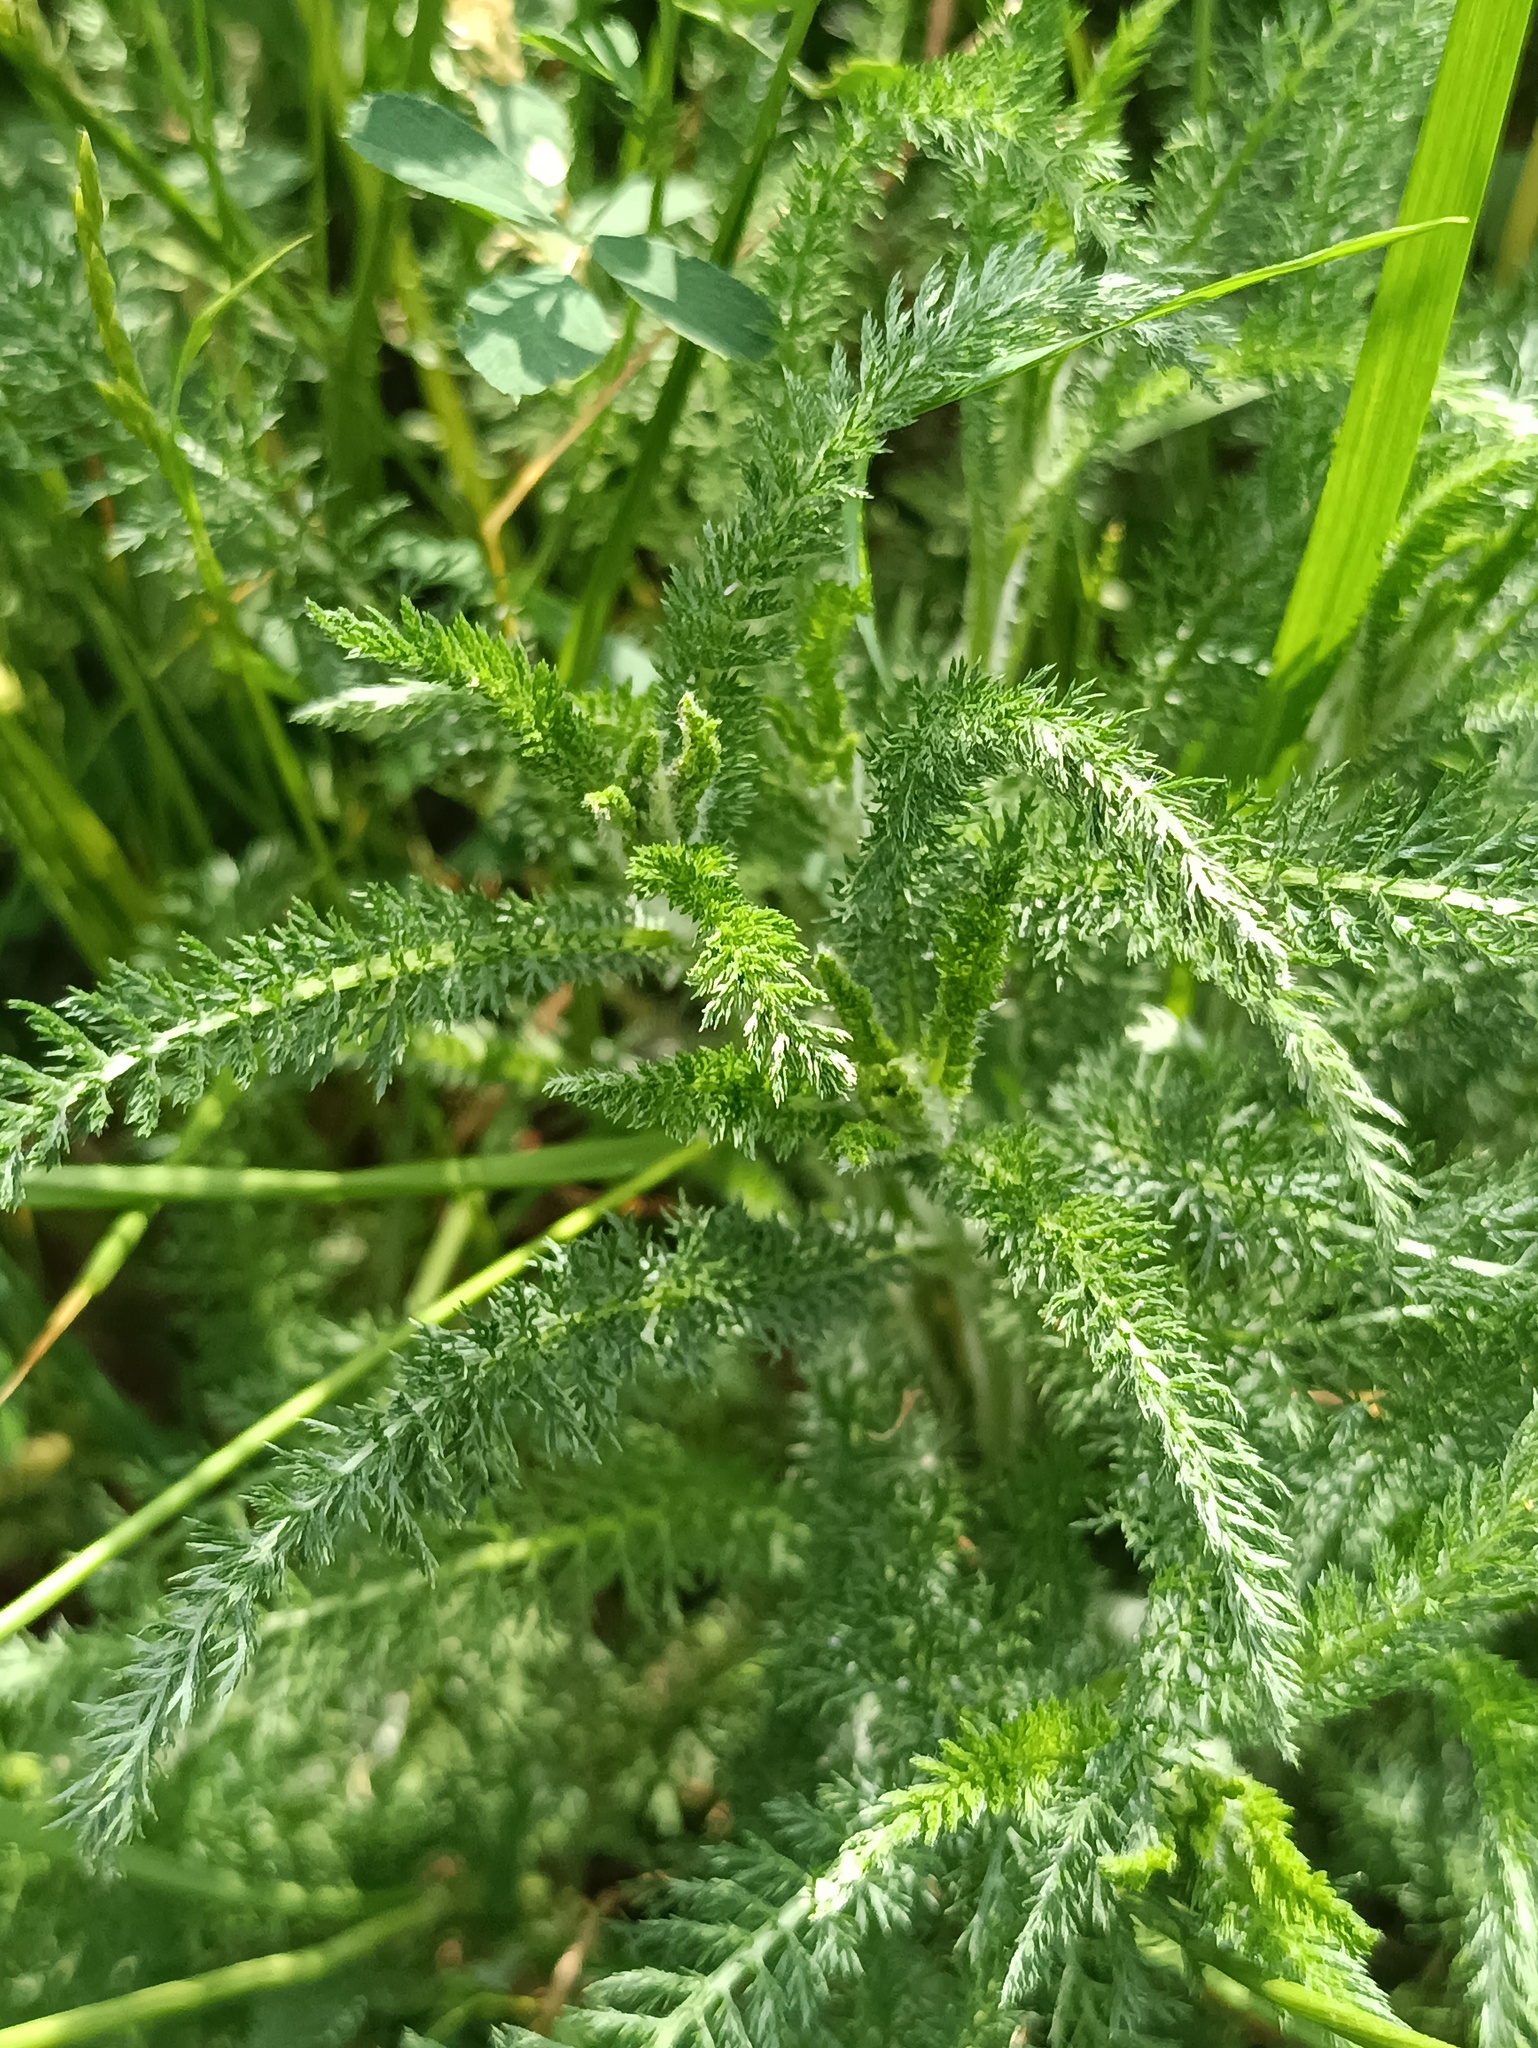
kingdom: Plantae
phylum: Tracheophyta
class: Magnoliopsida
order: Asterales
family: Asteraceae
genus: Achillea
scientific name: Achillea millefolium
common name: Yarrow
